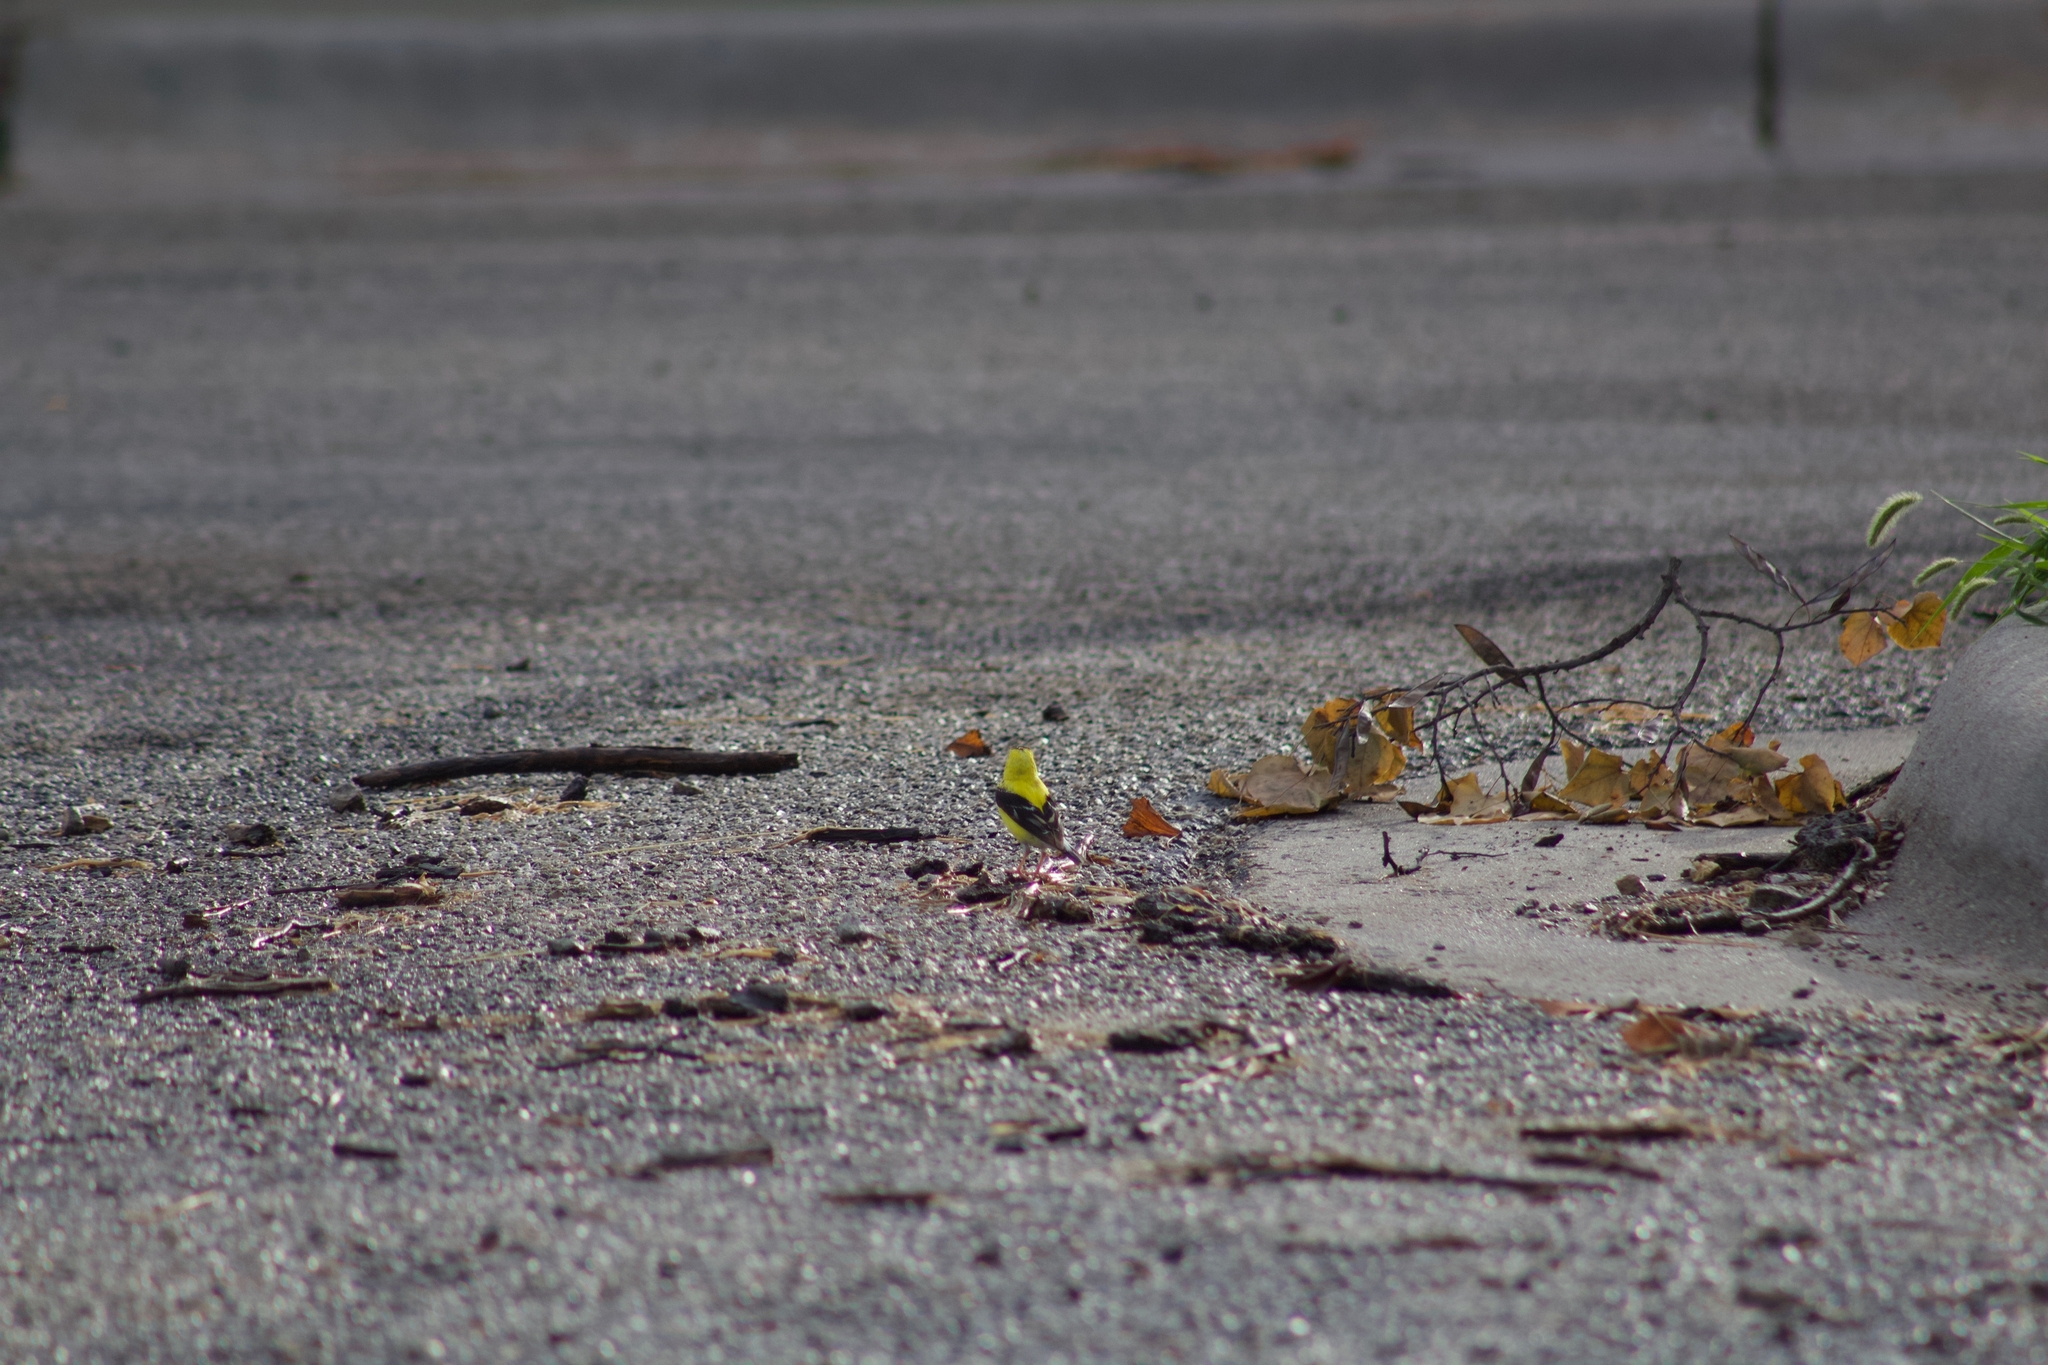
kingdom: Animalia
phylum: Chordata
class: Aves
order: Passeriformes
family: Fringillidae
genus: Spinus
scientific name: Spinus tristis
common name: American goldfinch
